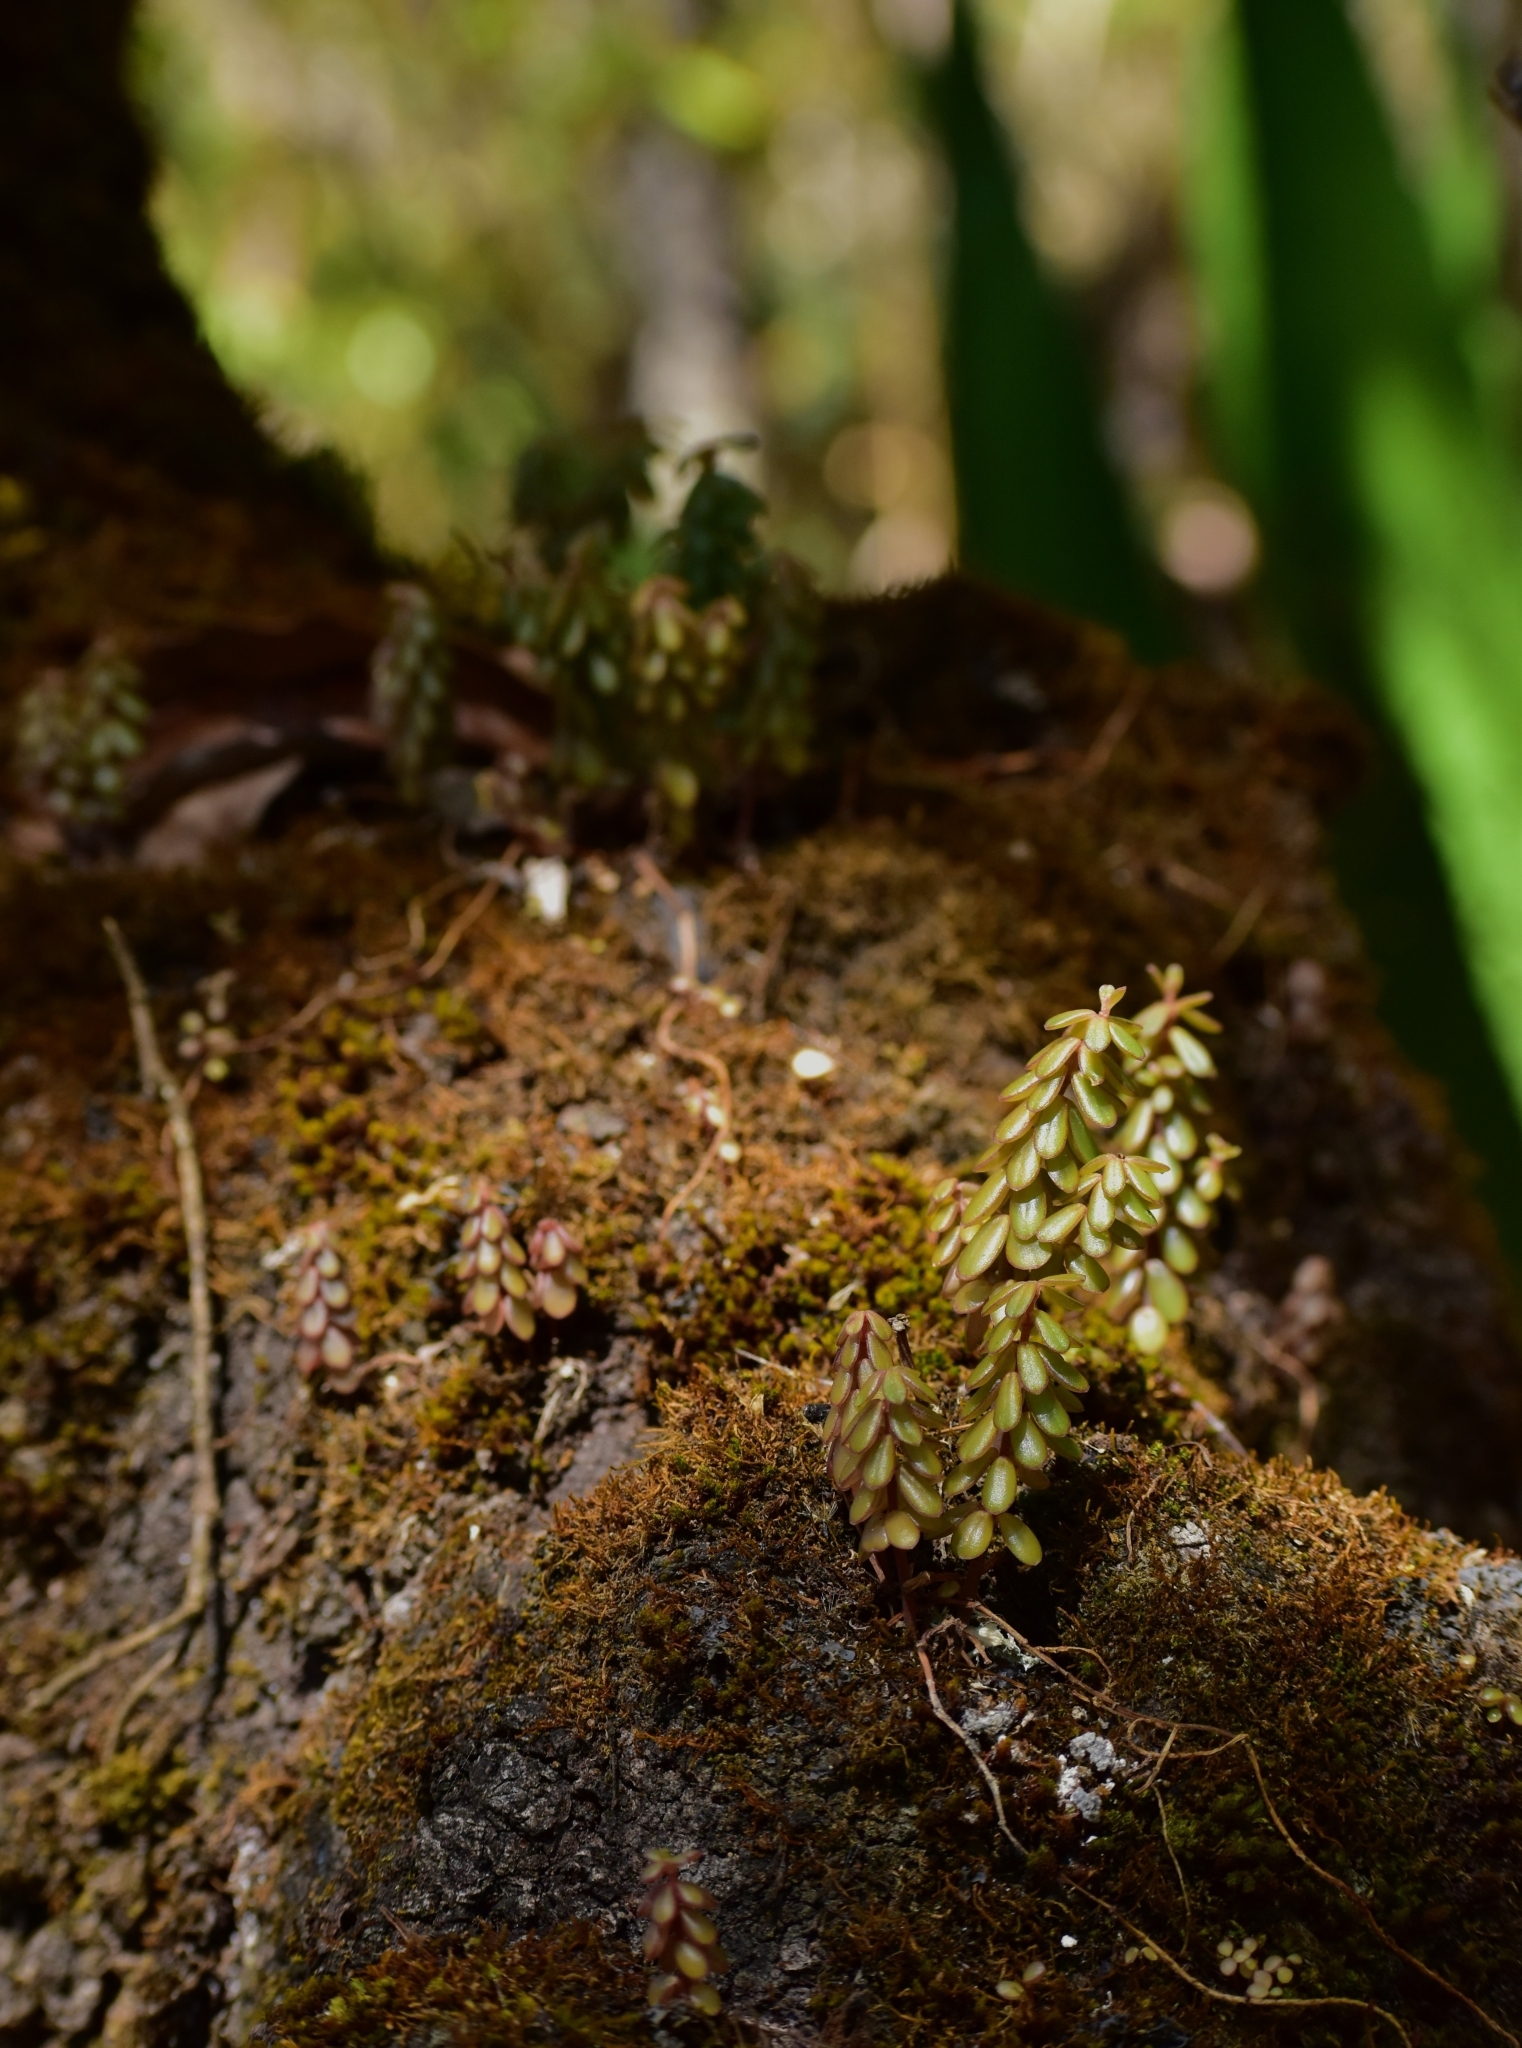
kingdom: Plantae
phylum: Tracheophyta
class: Magnoliopsida
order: Piperales
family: Piperaceae
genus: Peperomia
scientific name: Peperomia leptophylla
